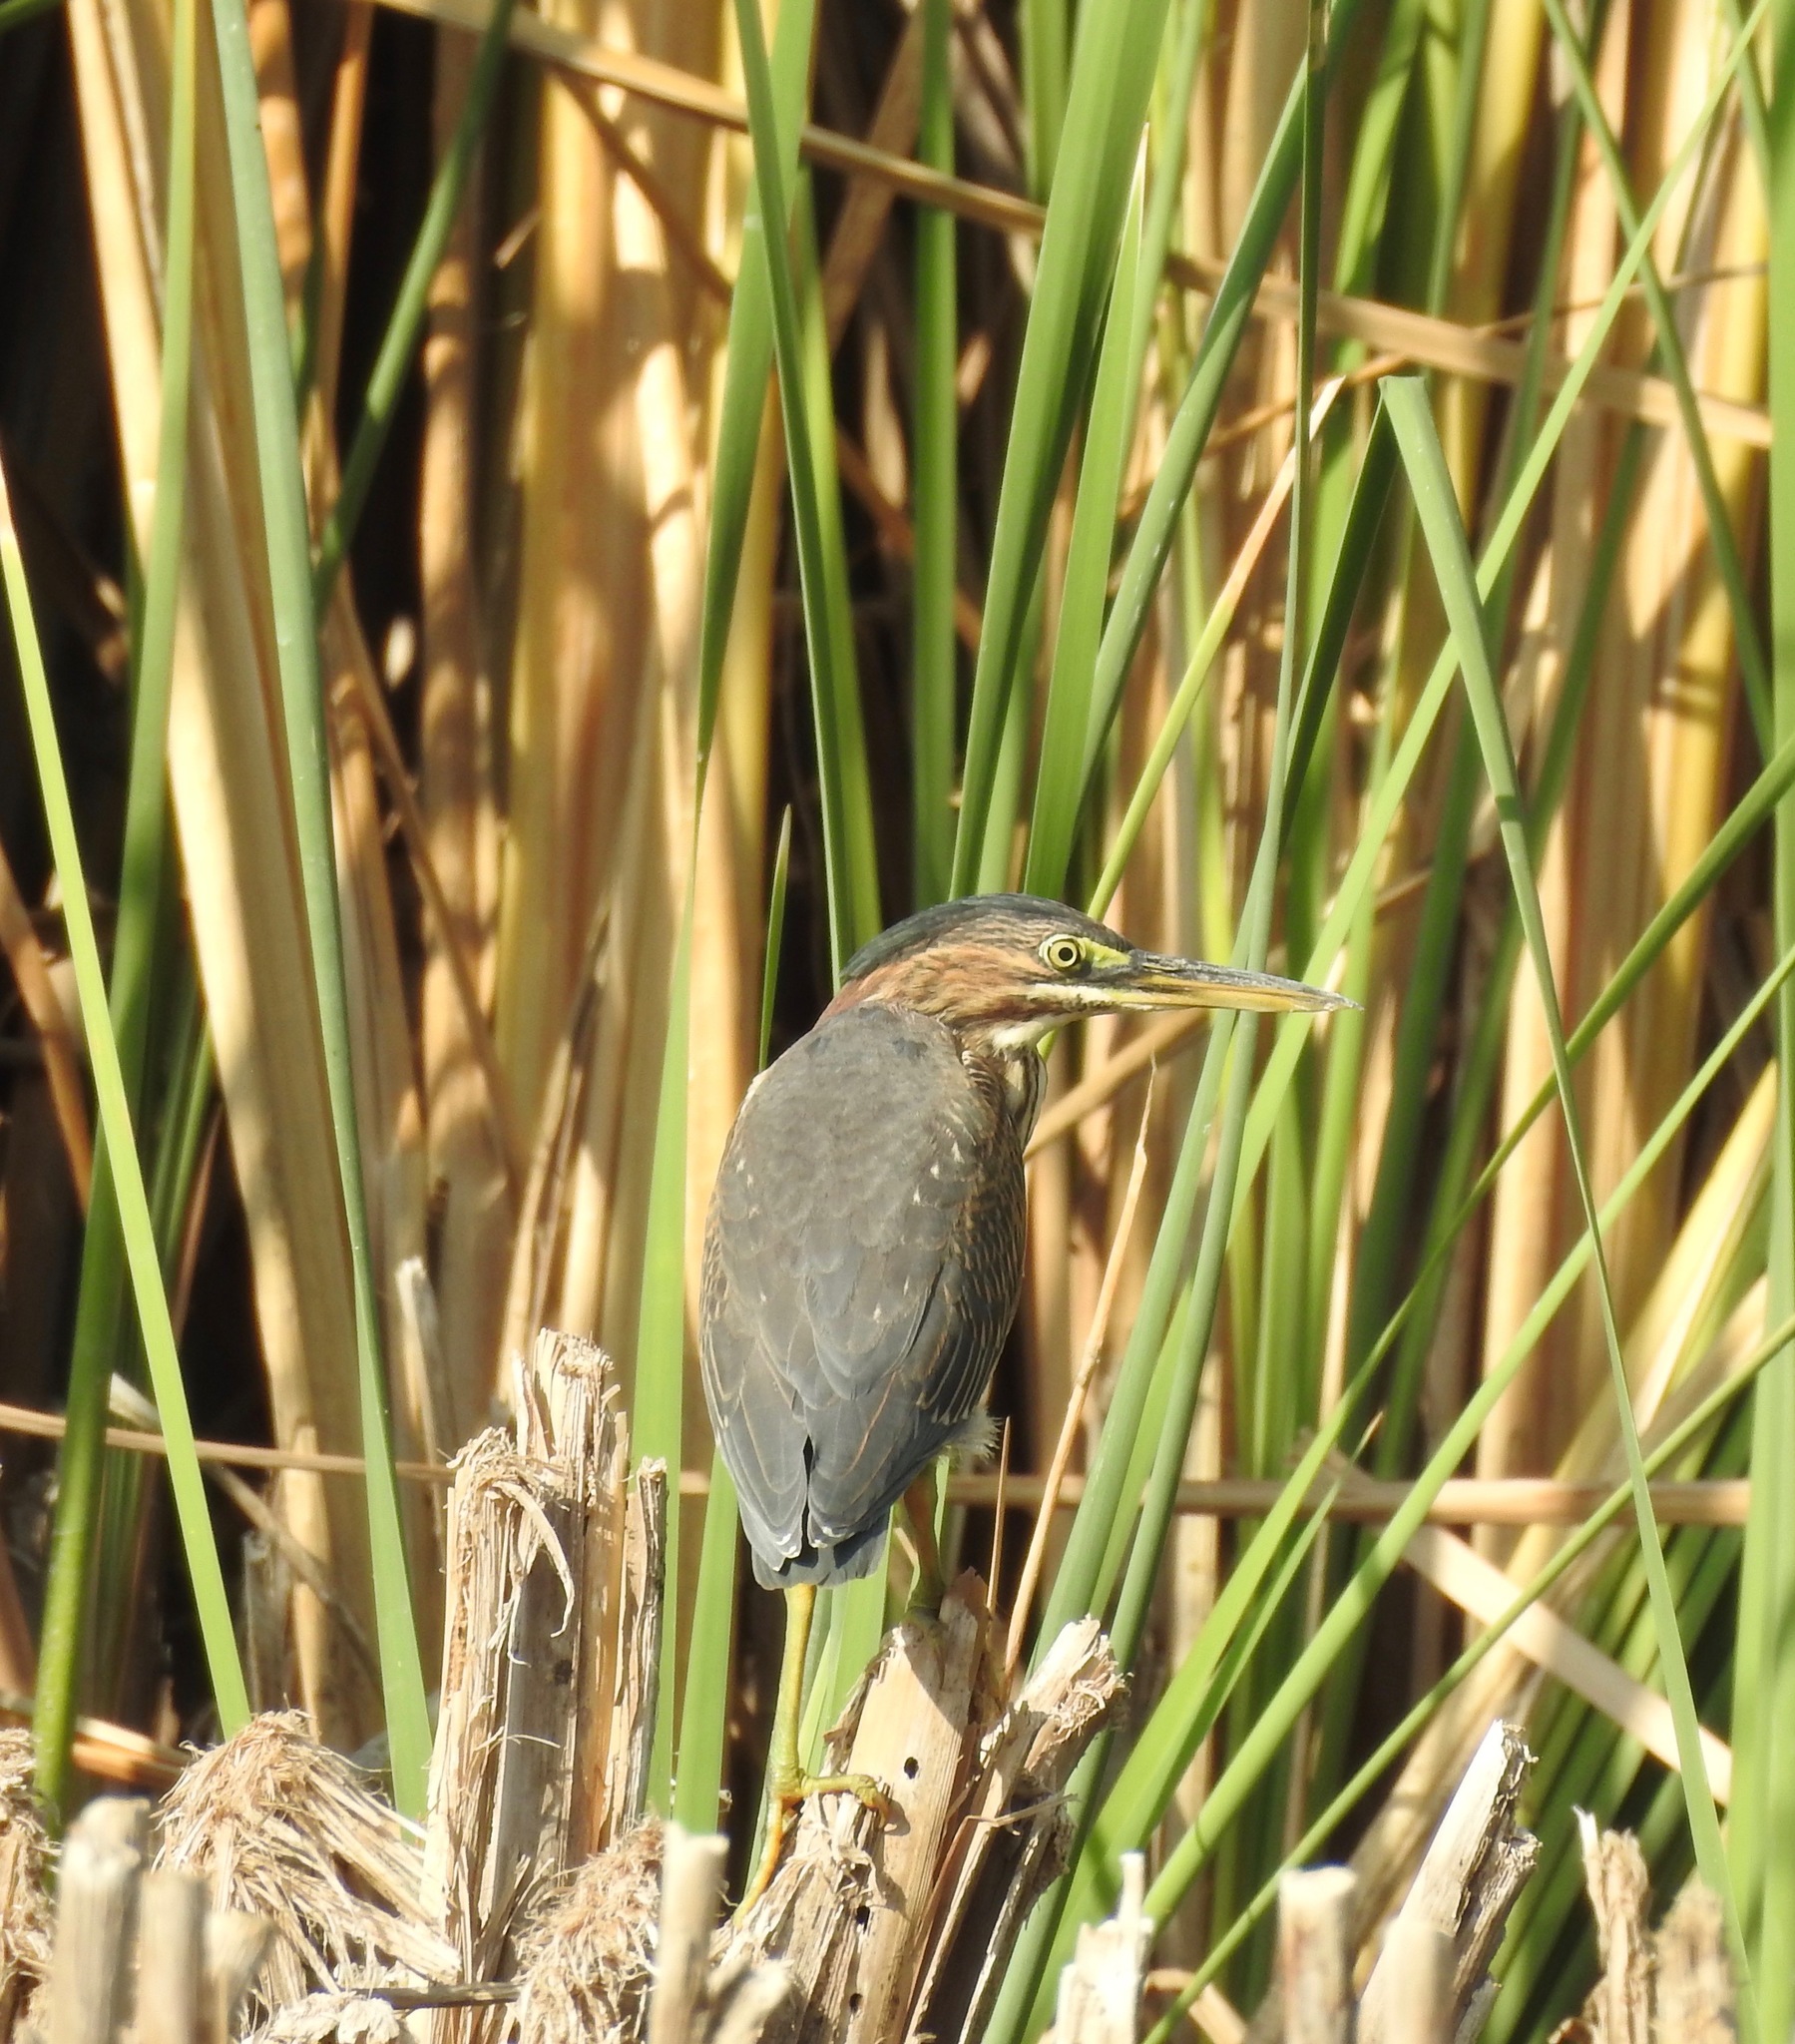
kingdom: Animalia
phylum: Chordata
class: Aves
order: Pelecaniformes
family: Ardeidae
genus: Butorides
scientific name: Butorides virescens
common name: Green heron
